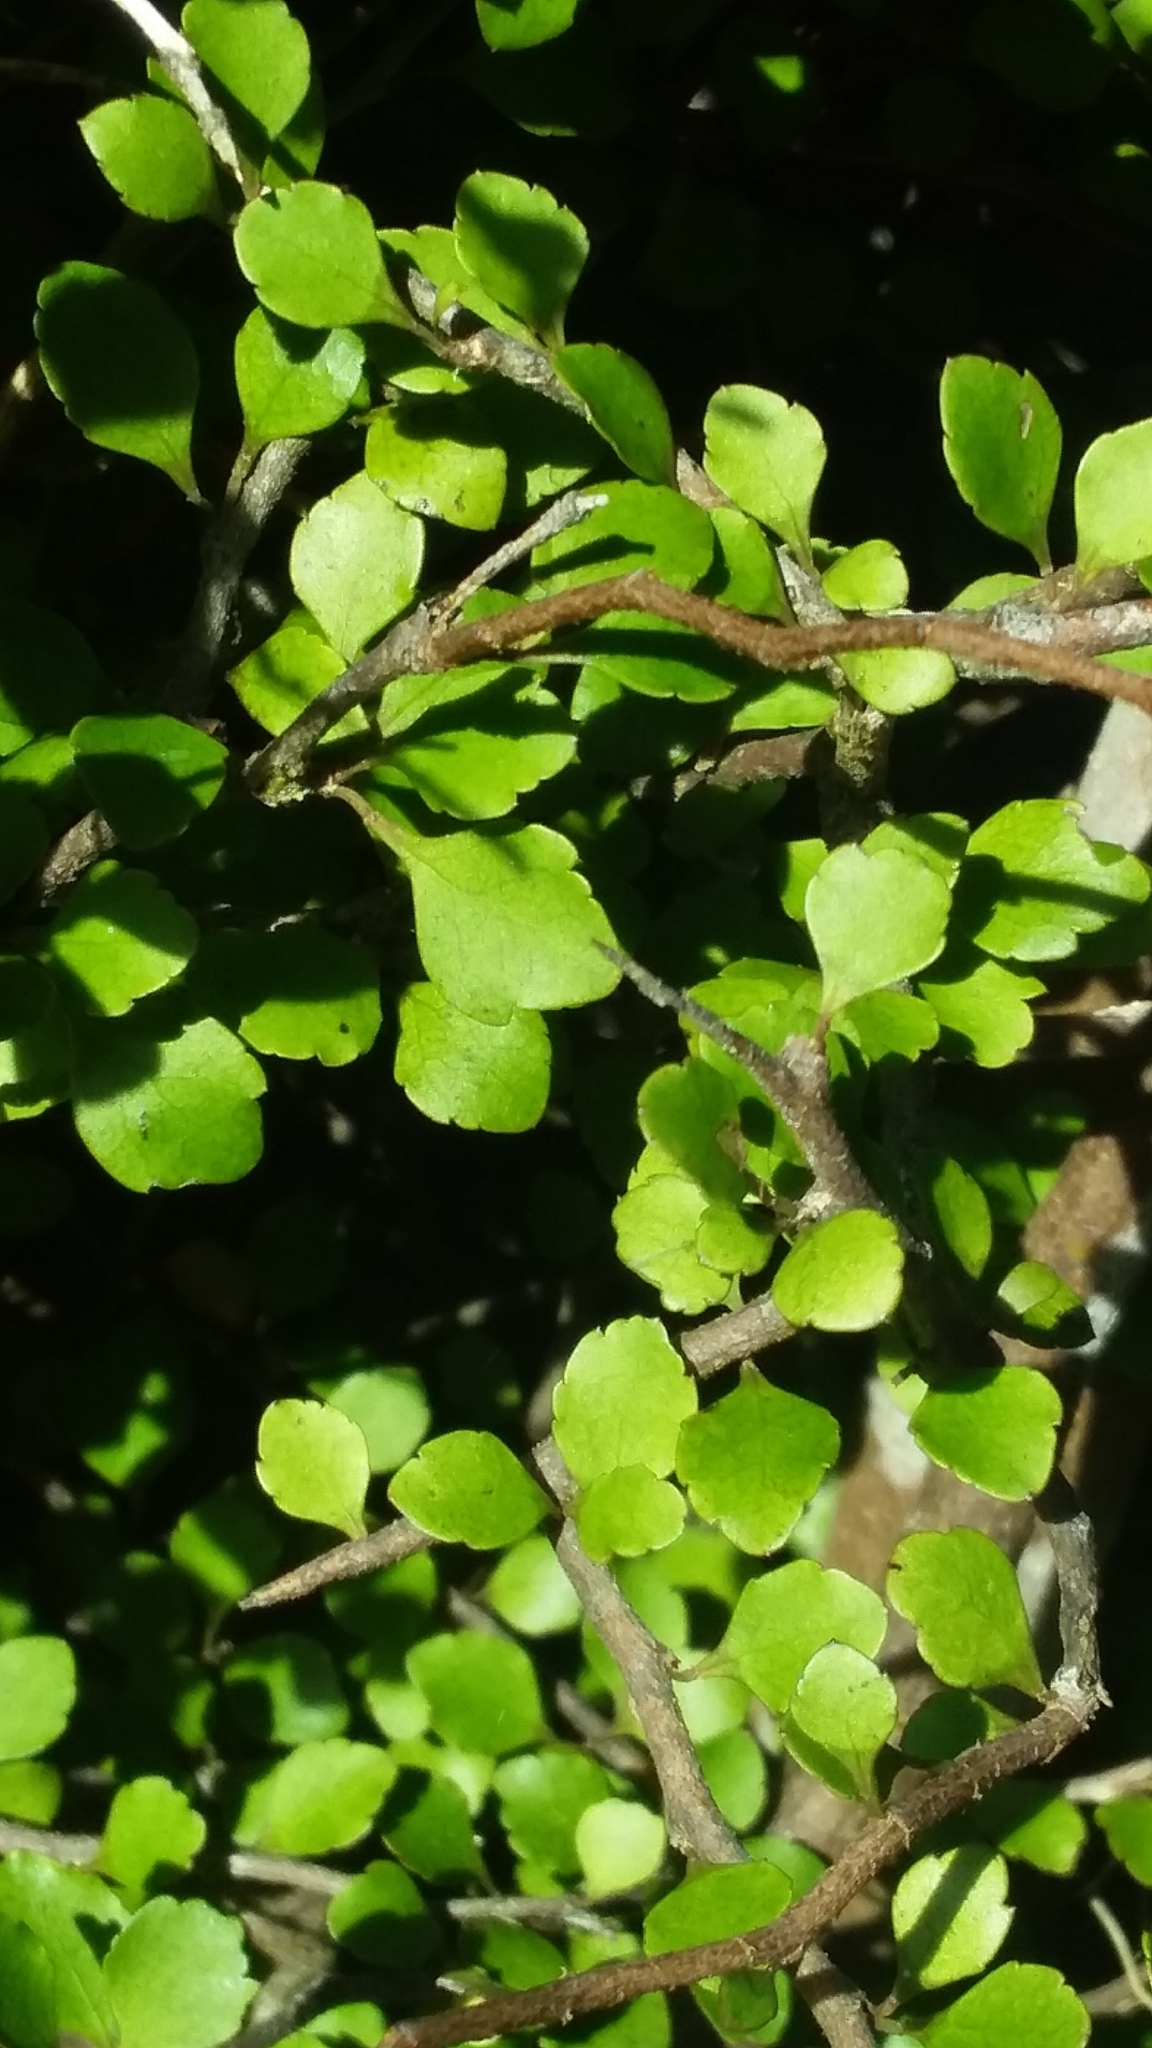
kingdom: Plantae
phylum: Tracheophyta
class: Magnoliopsida
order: Apiales
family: Araliaceae
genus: Raukaua
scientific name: Raukaua anomalus
